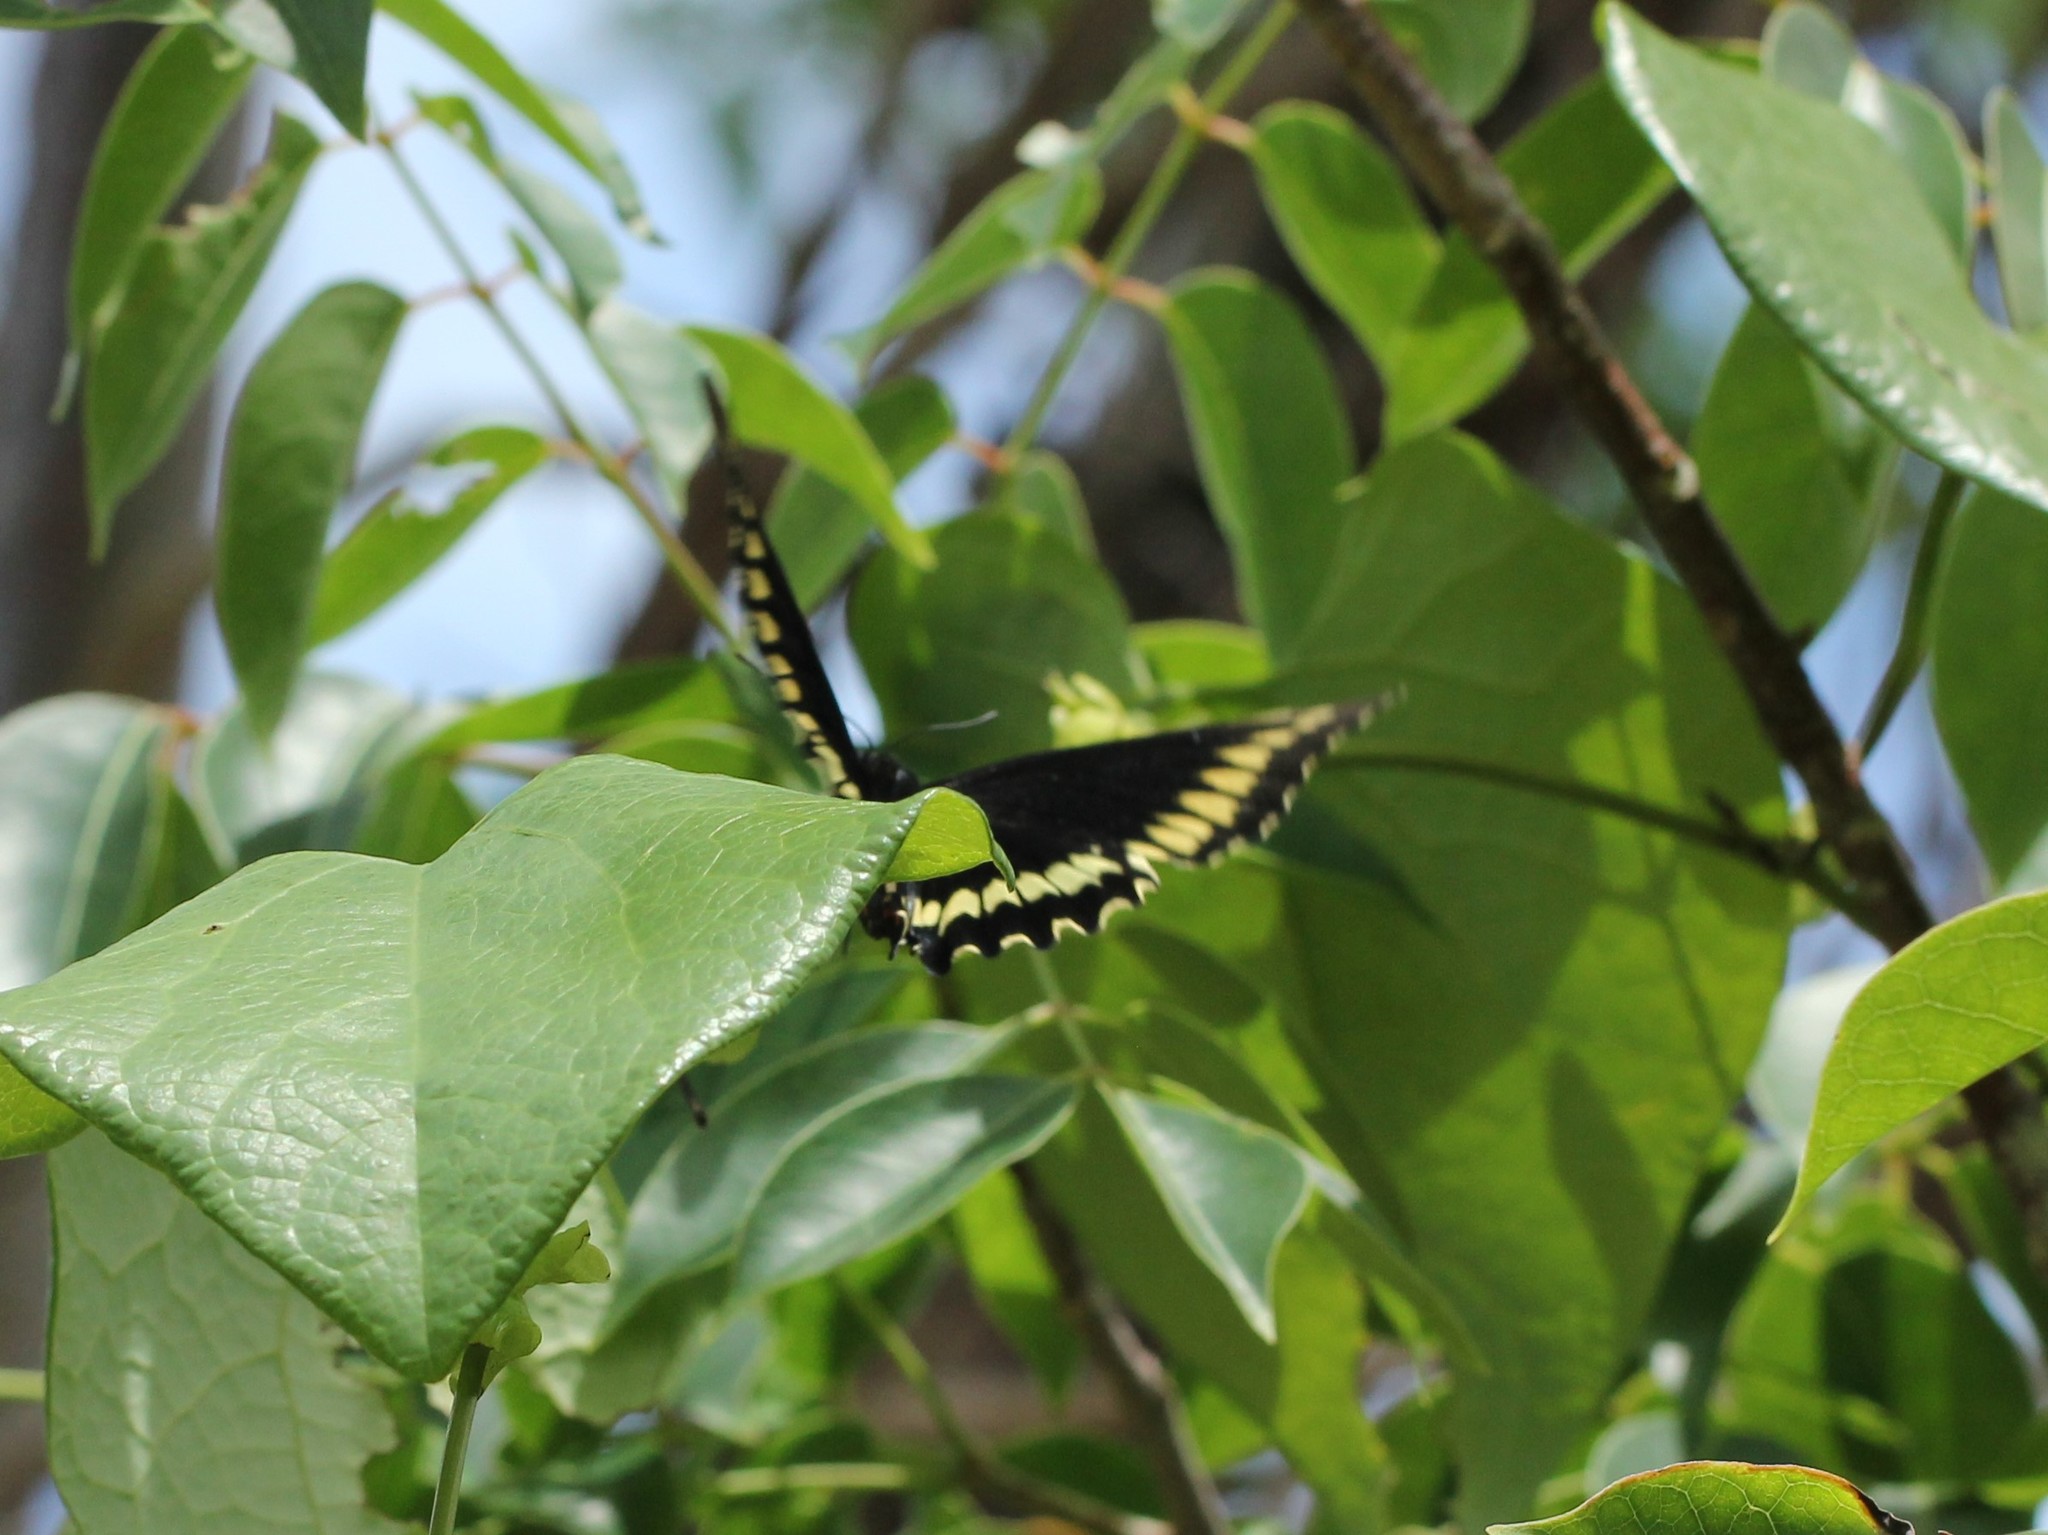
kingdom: Animalia
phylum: Arthropoda
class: Insecta
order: Lepidoptera
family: Papilionidae
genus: Battus
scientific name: Battus polydamas
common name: Polydamas swallowtail
